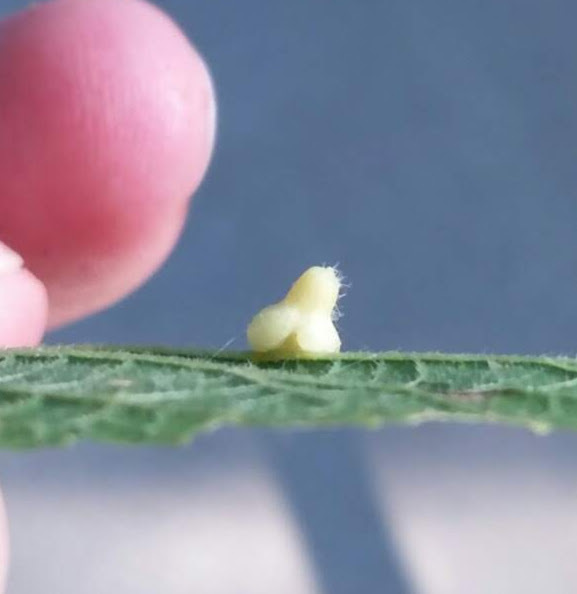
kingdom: Animalia
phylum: Arthropoda
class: Insecta
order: Diptera
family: Cecidomyiidae
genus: Celticecis
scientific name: Celticecis pyriformis
